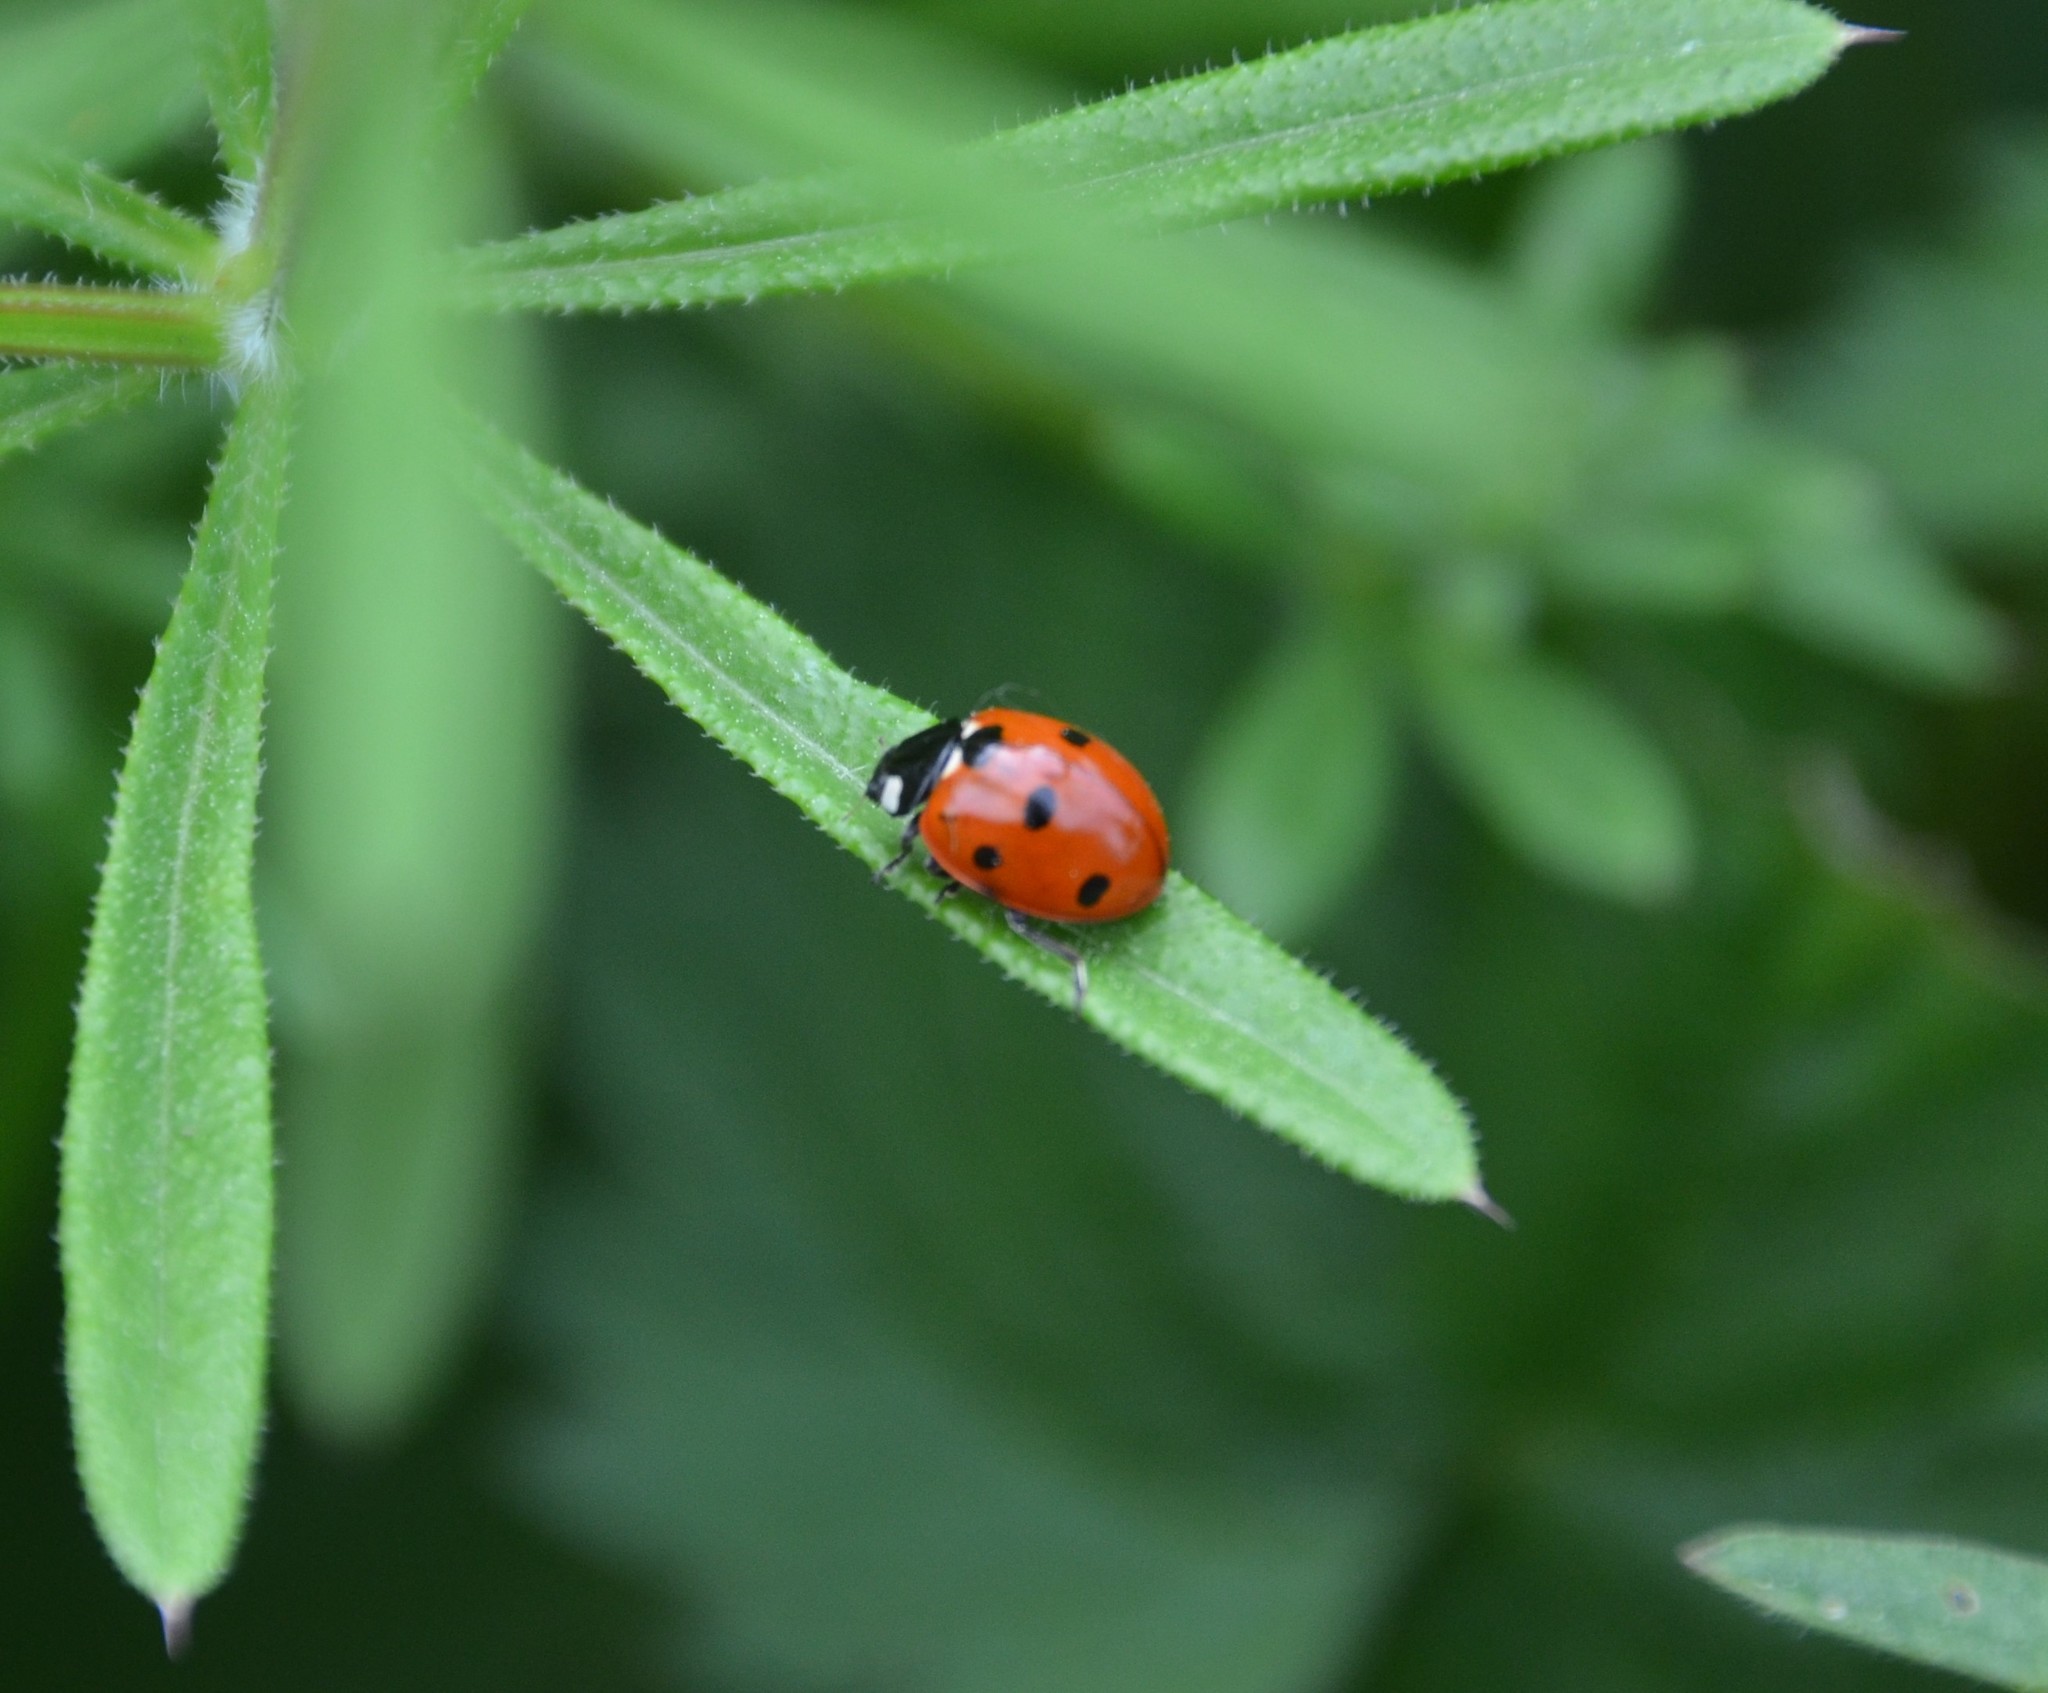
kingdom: Animalia
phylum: Arthropoda
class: Insecta
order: Coleoptera
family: Coccinellidae
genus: Coccinella
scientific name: Coccinella septempunctata
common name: Sevenspotted lady beetle
